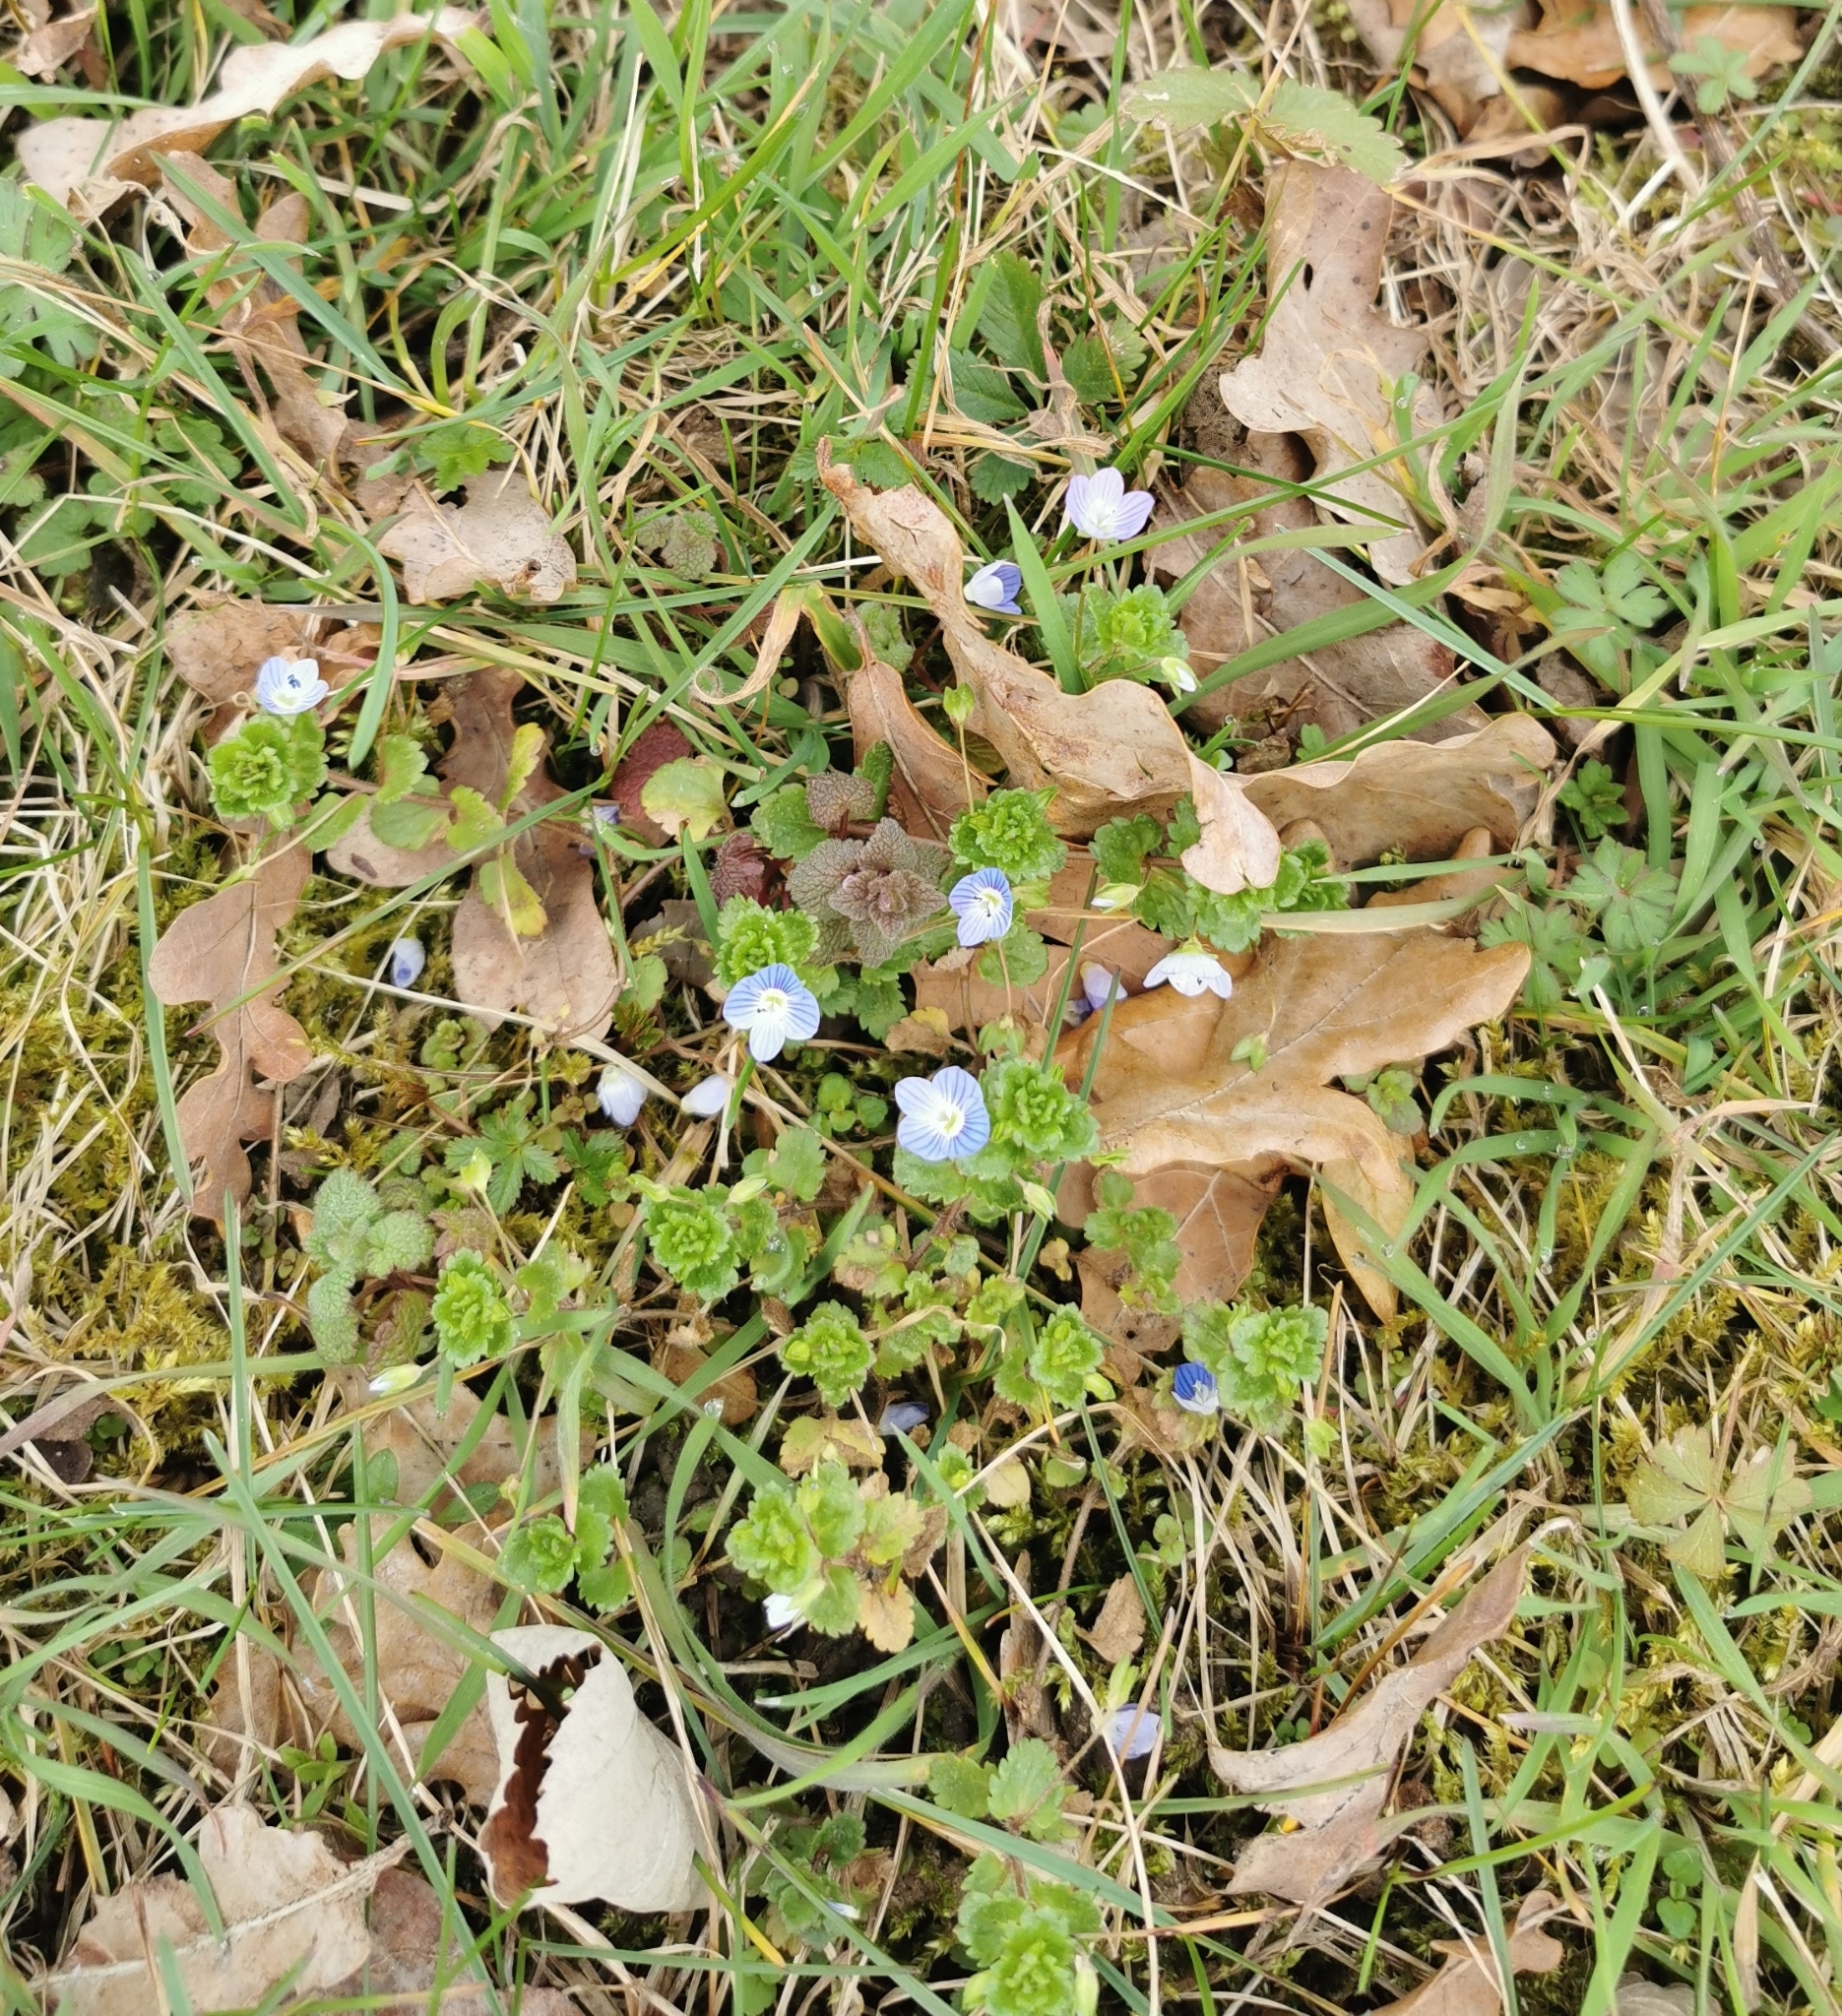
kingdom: Plantae
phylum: Tracheophyta
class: Magnoliopsida
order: Lamiales
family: Plantaginaceae
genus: Veronica
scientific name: Veronica persica
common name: Common field-speedwell
